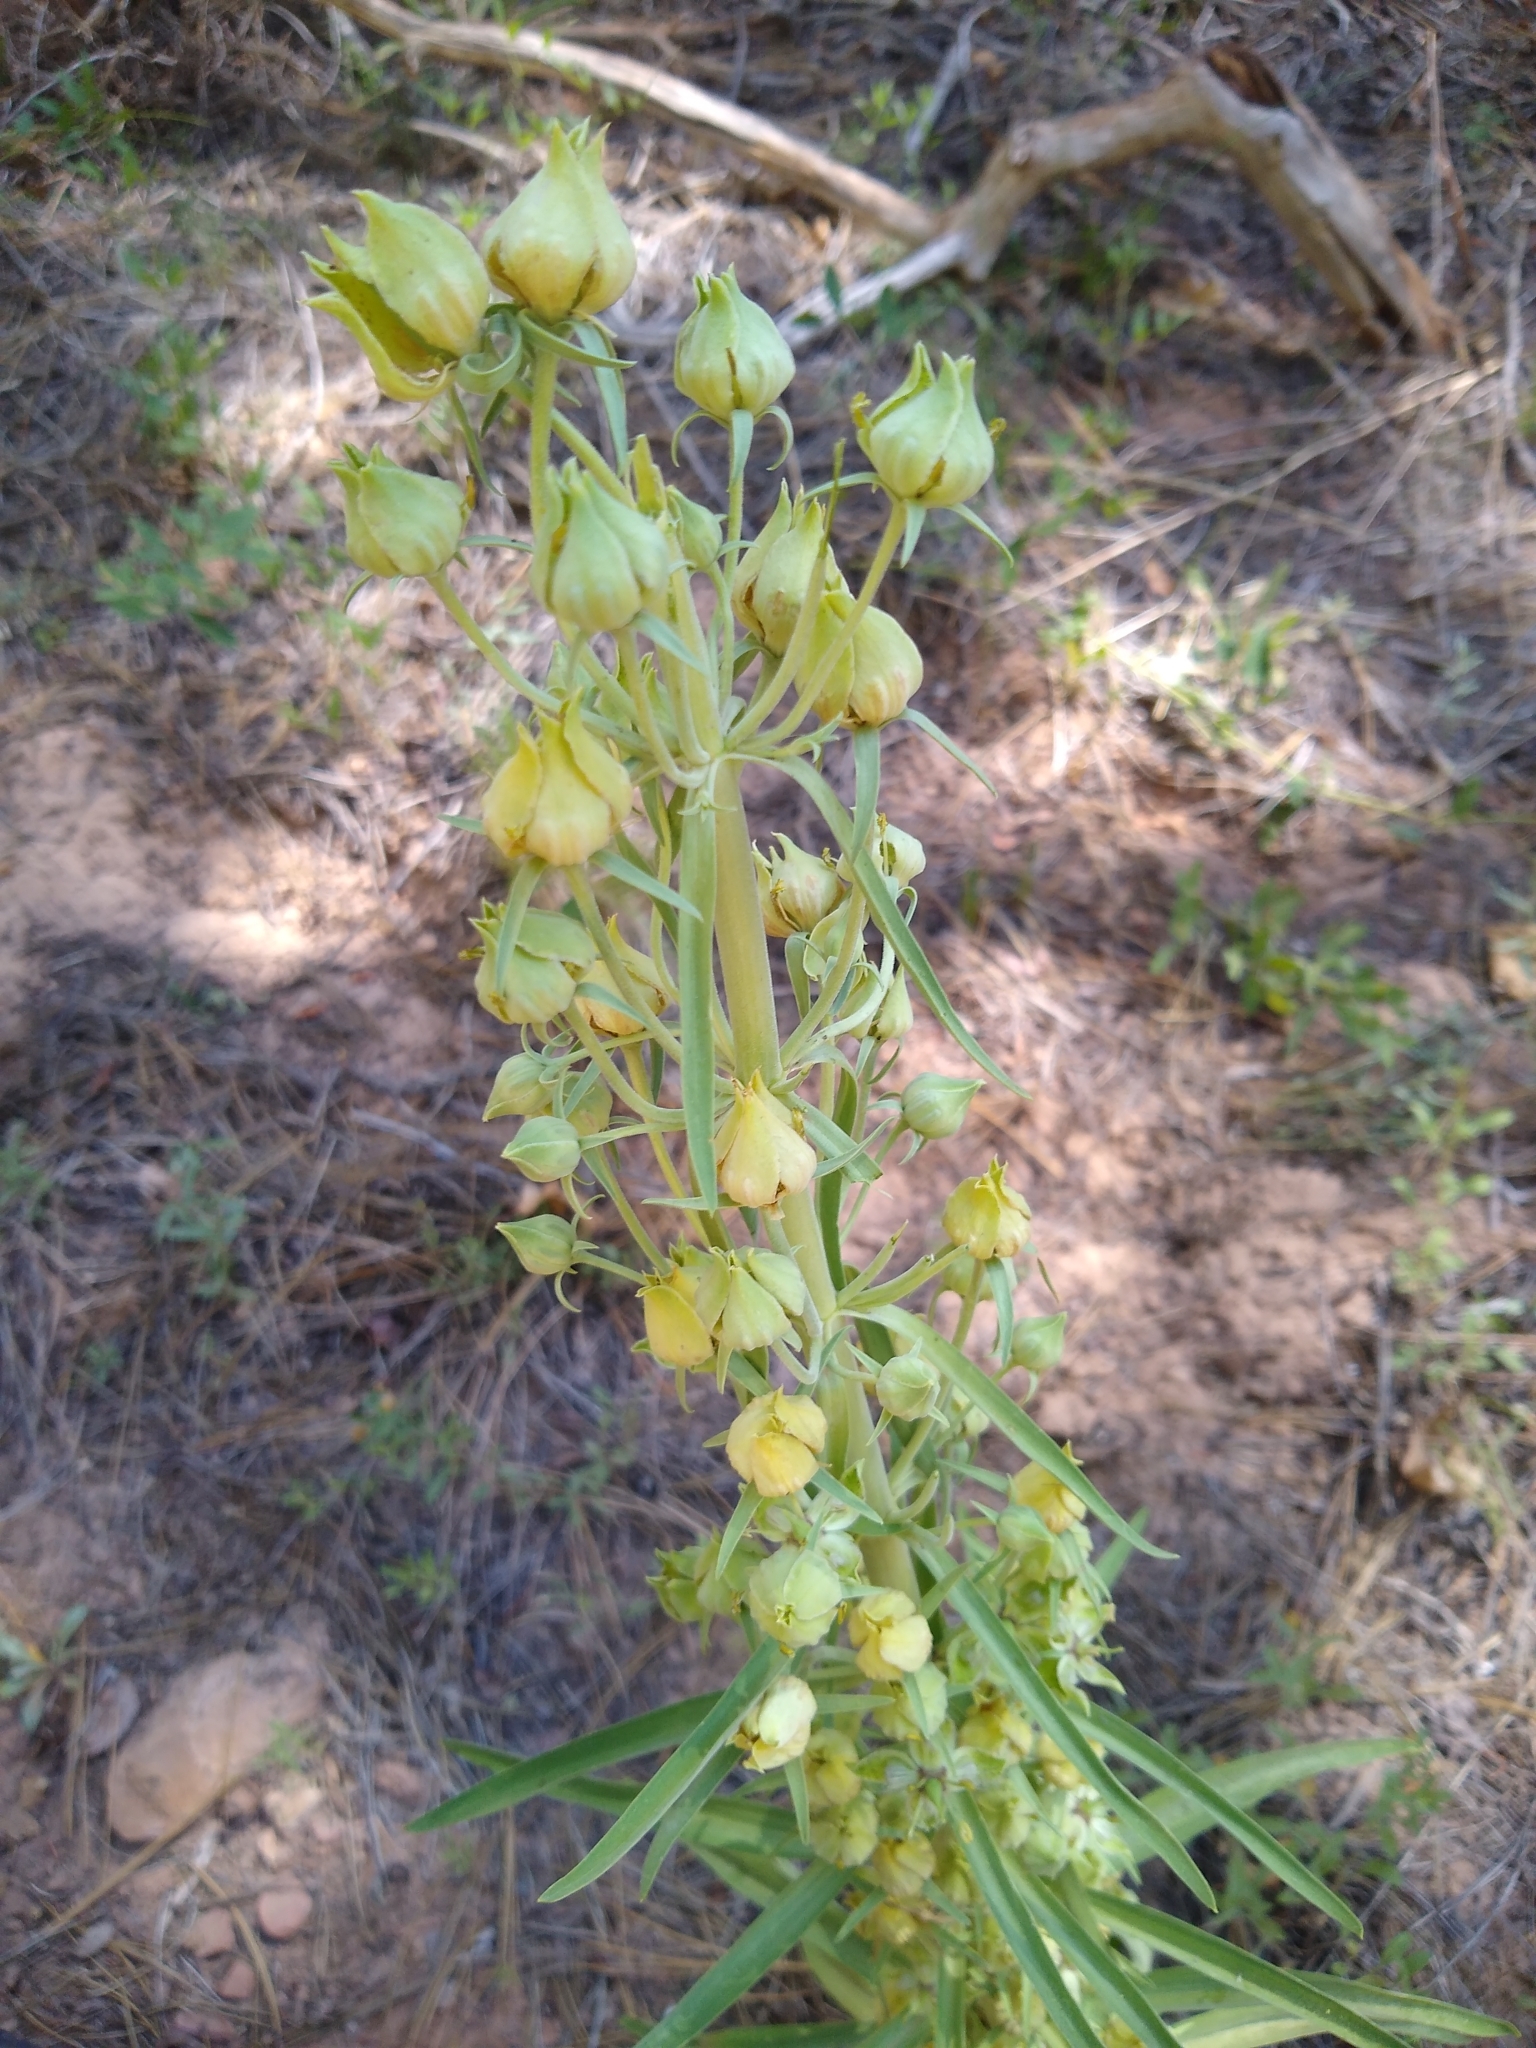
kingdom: Plantae
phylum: Tracheophyta
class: Magnoliopsida
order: Gentianales
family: Gentianaceae
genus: Frasera
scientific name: Frasera speciosa
